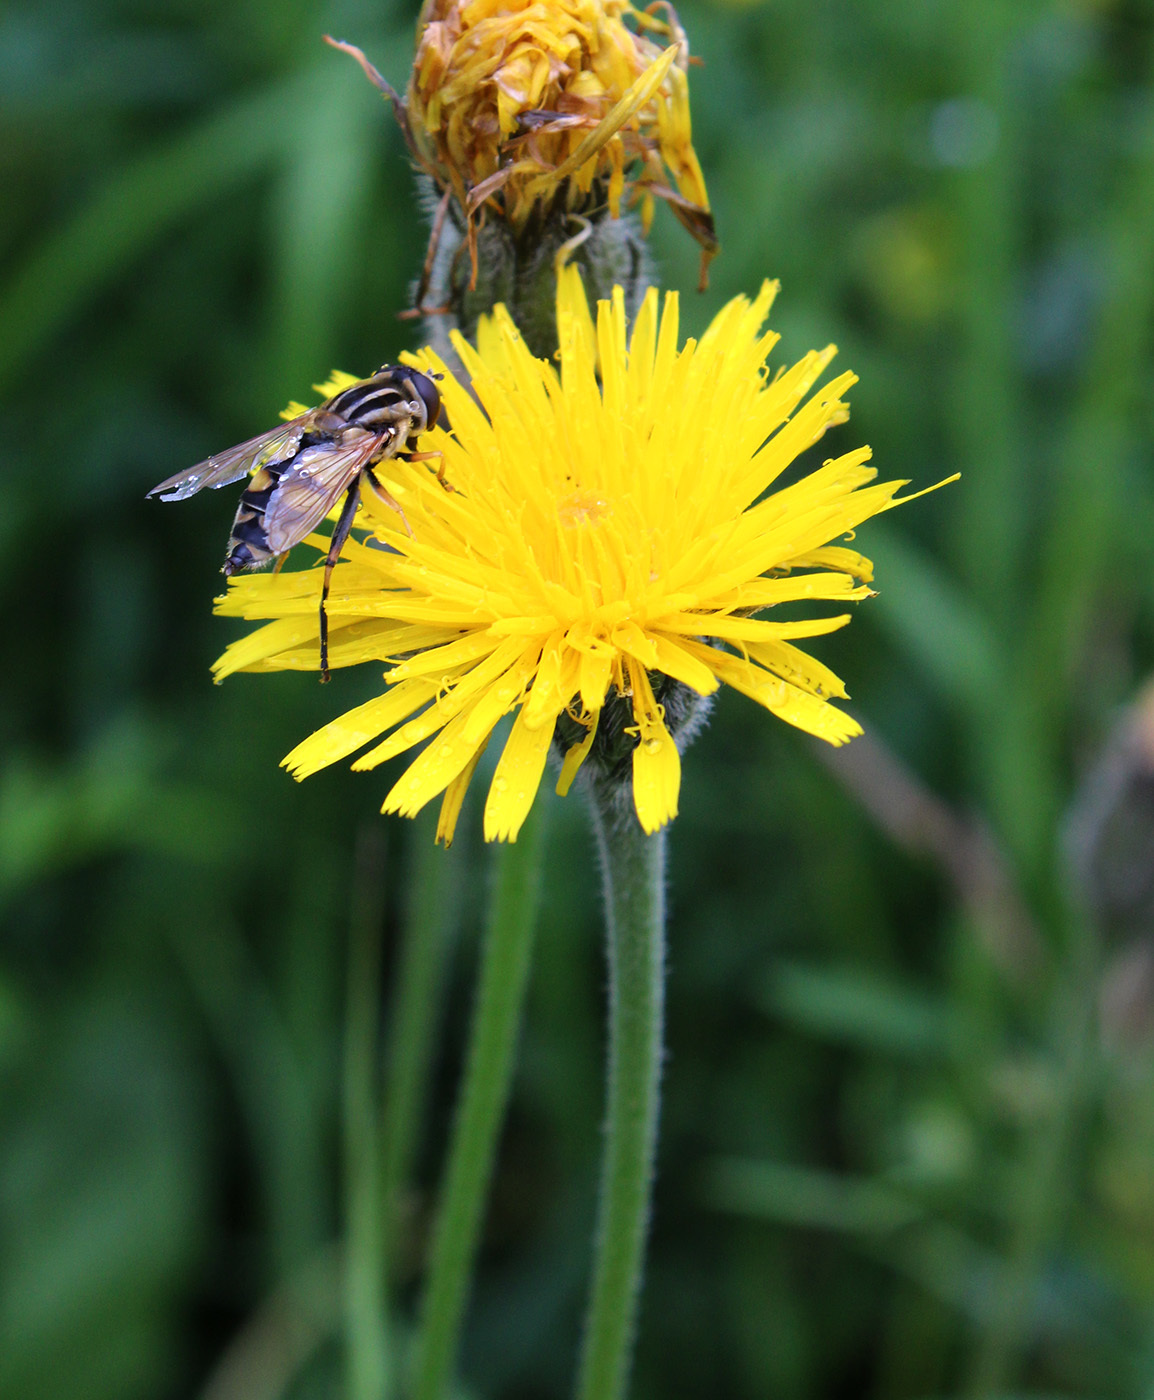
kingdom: Plantae
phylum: Tracheophyta
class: Magnoliopsida
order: Asterales
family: Asteraceae
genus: Leontodon
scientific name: Leontodon hispidus
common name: Rough hawkbit
